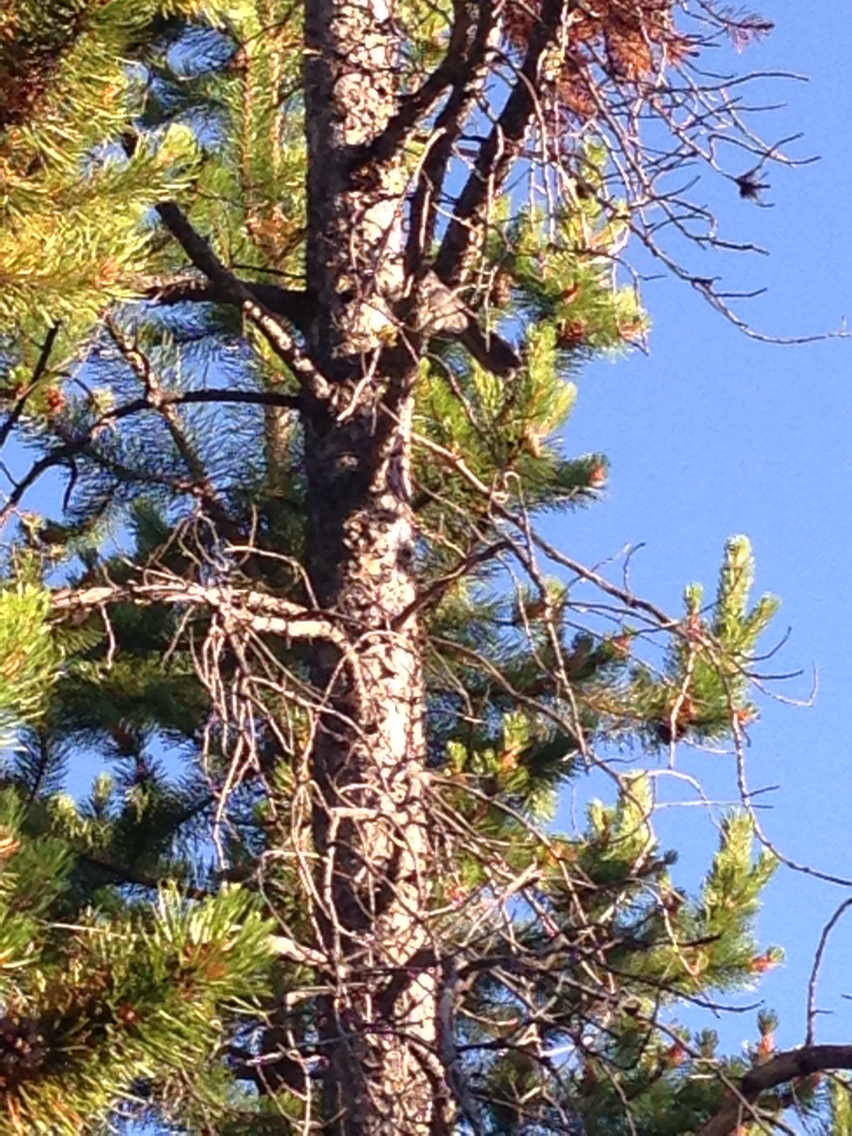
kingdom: Animalia
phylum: Chordata
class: Aves
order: Passeriformes
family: Corvidae
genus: Perisoreus
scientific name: Perisoreus canadensis
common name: Gray jay
